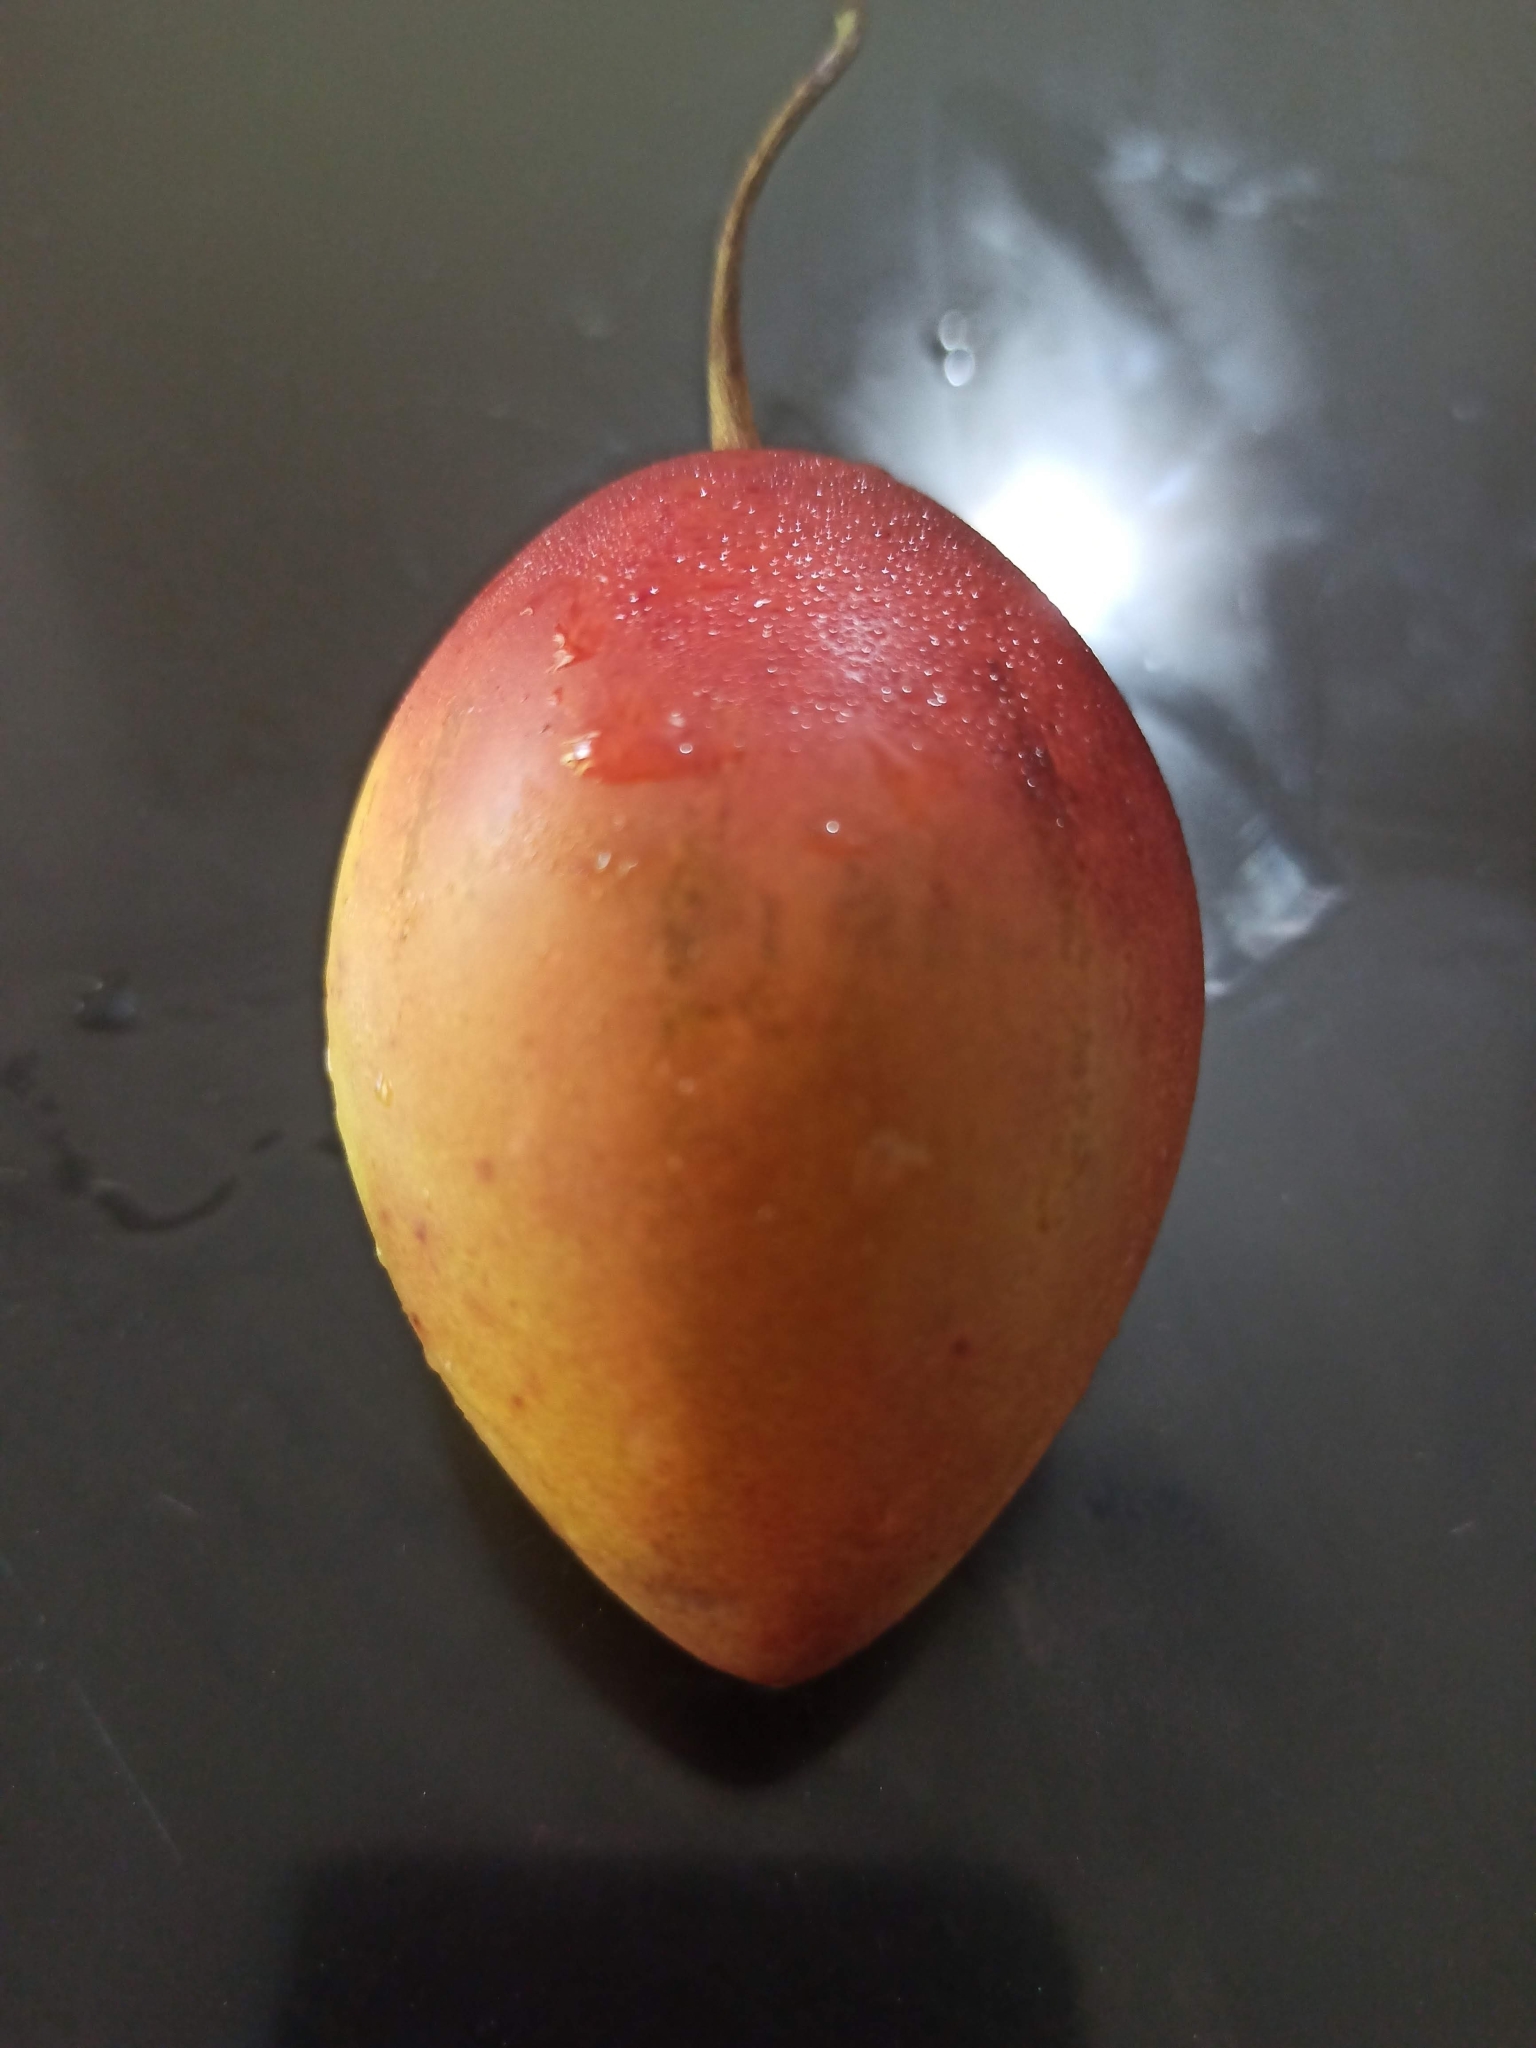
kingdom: Plantae
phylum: Tracheophyta
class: Magnoliopsida
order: Solanales
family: Solanaceae
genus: Solanum
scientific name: Solanum betaceum
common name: Tamarillo
